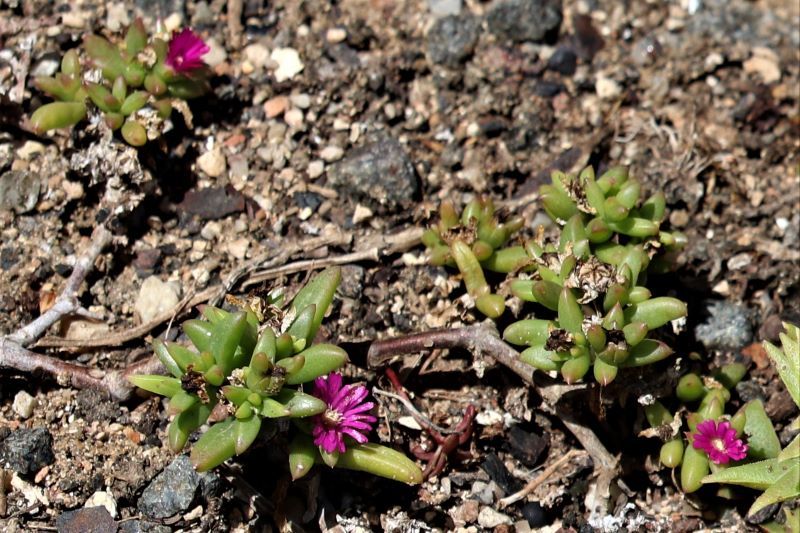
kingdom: Plantae
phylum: Tracheophyta
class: Magnoliopsida
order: Caryophyllales
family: Aizoaceae
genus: Delosperma
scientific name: Delosperma vernicolor
